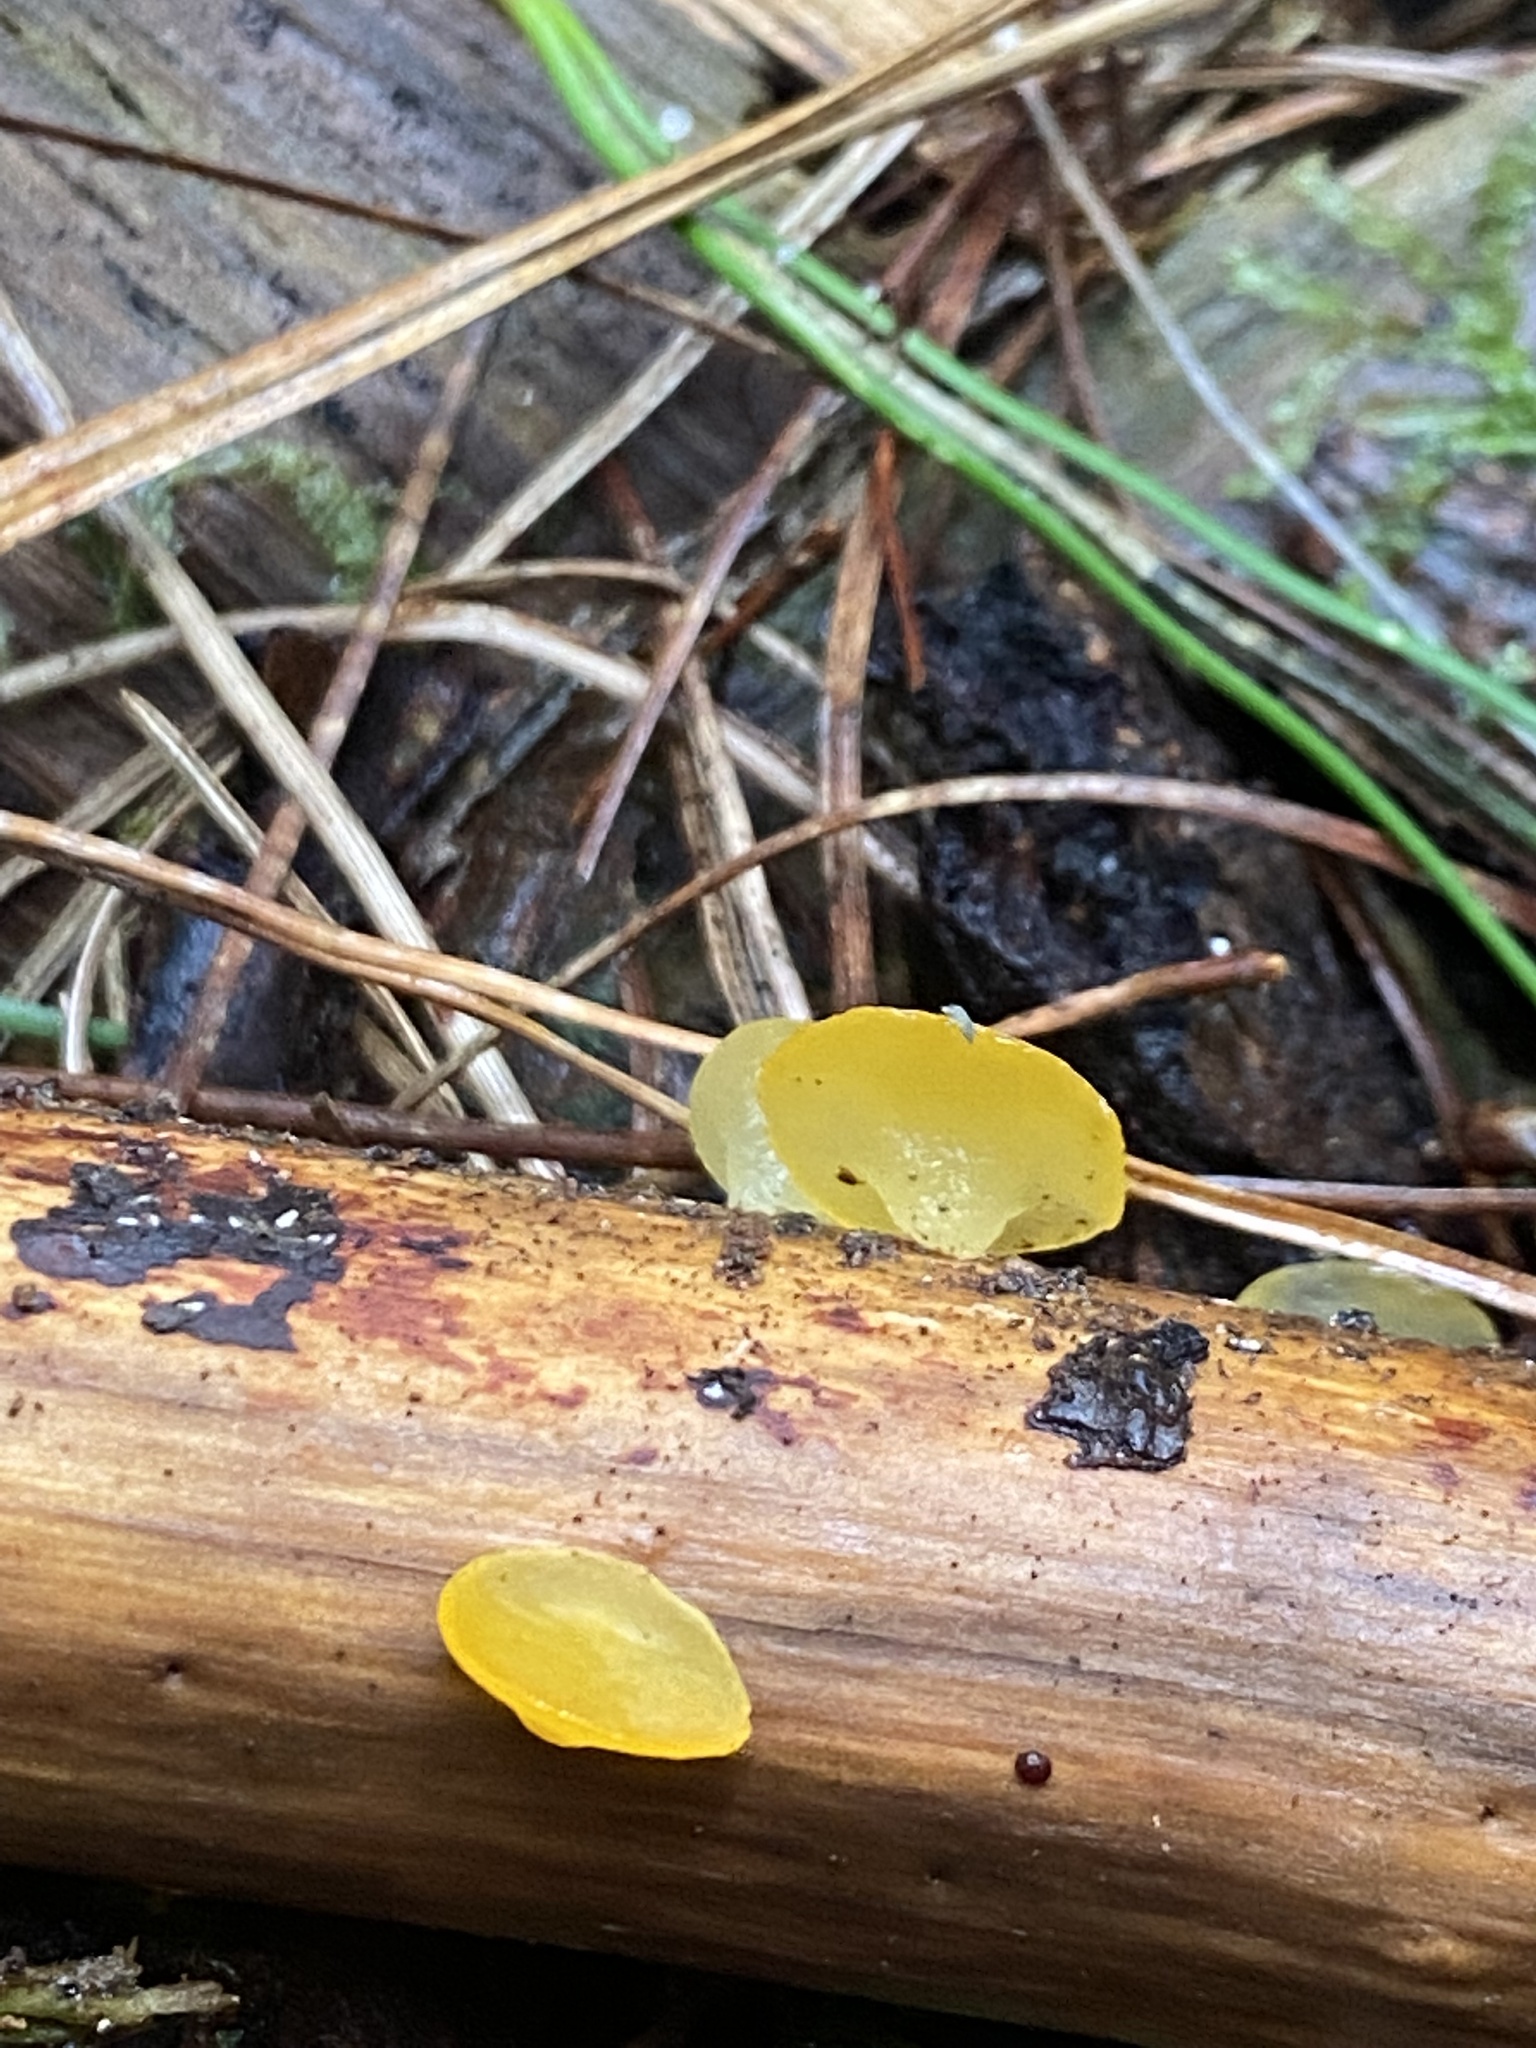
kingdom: Fungi
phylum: Basidiomycota
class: Dacrymycetes
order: Dacrymycetales
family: Dacrymycetaceae
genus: Heterotextus
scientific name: Heterotextus miltinus
